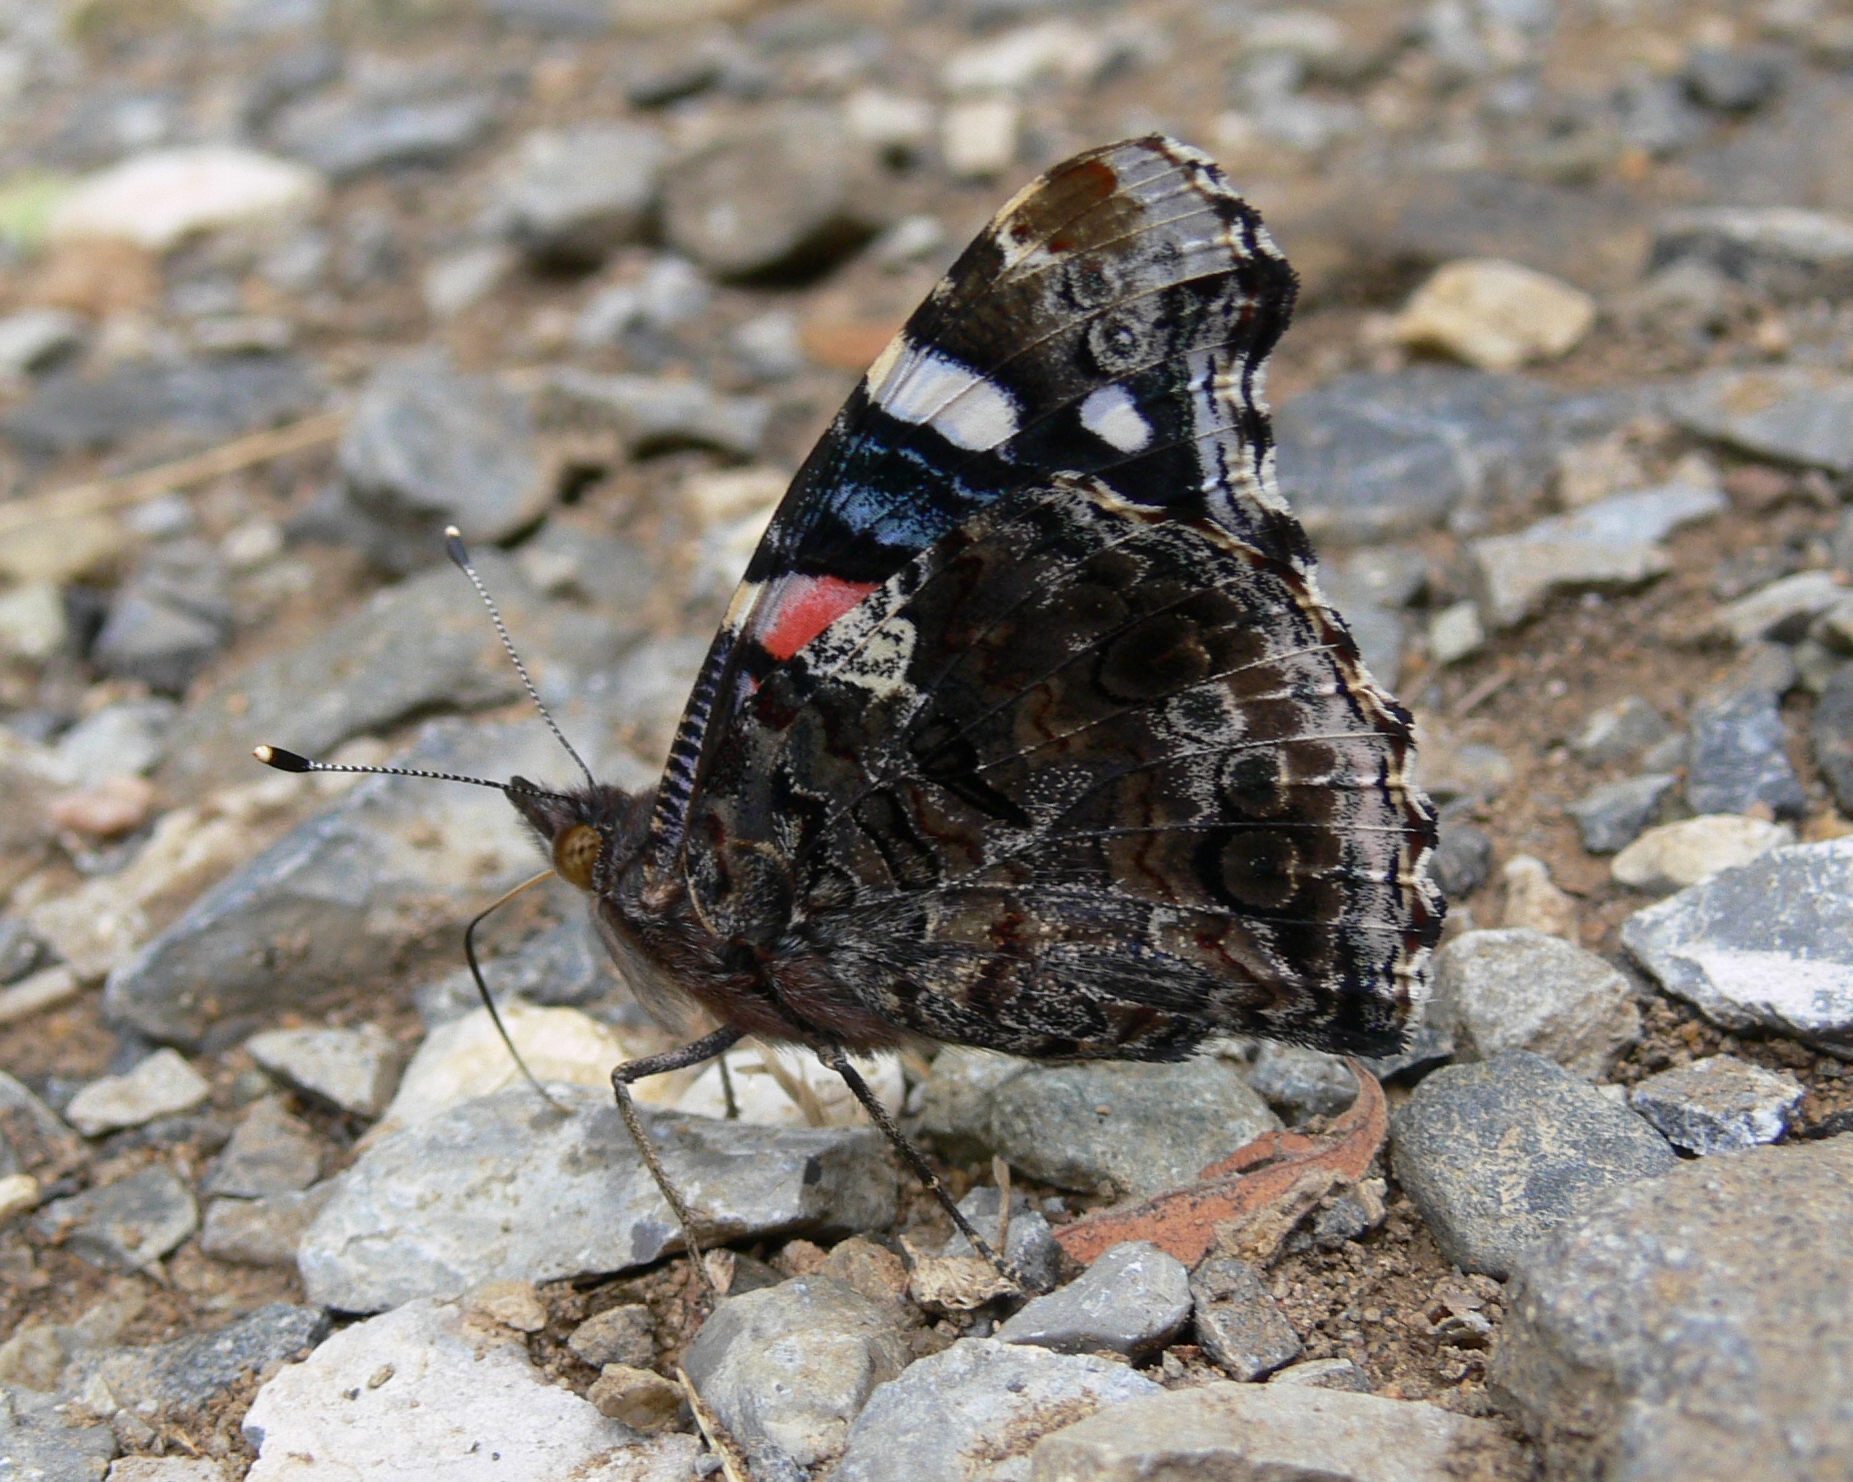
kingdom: Animalia
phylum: Arthropoda
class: Insecta
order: Lepidoptera
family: Nymphalidae
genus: Vanessa
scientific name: Vanessa atalanta
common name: Red admiral
